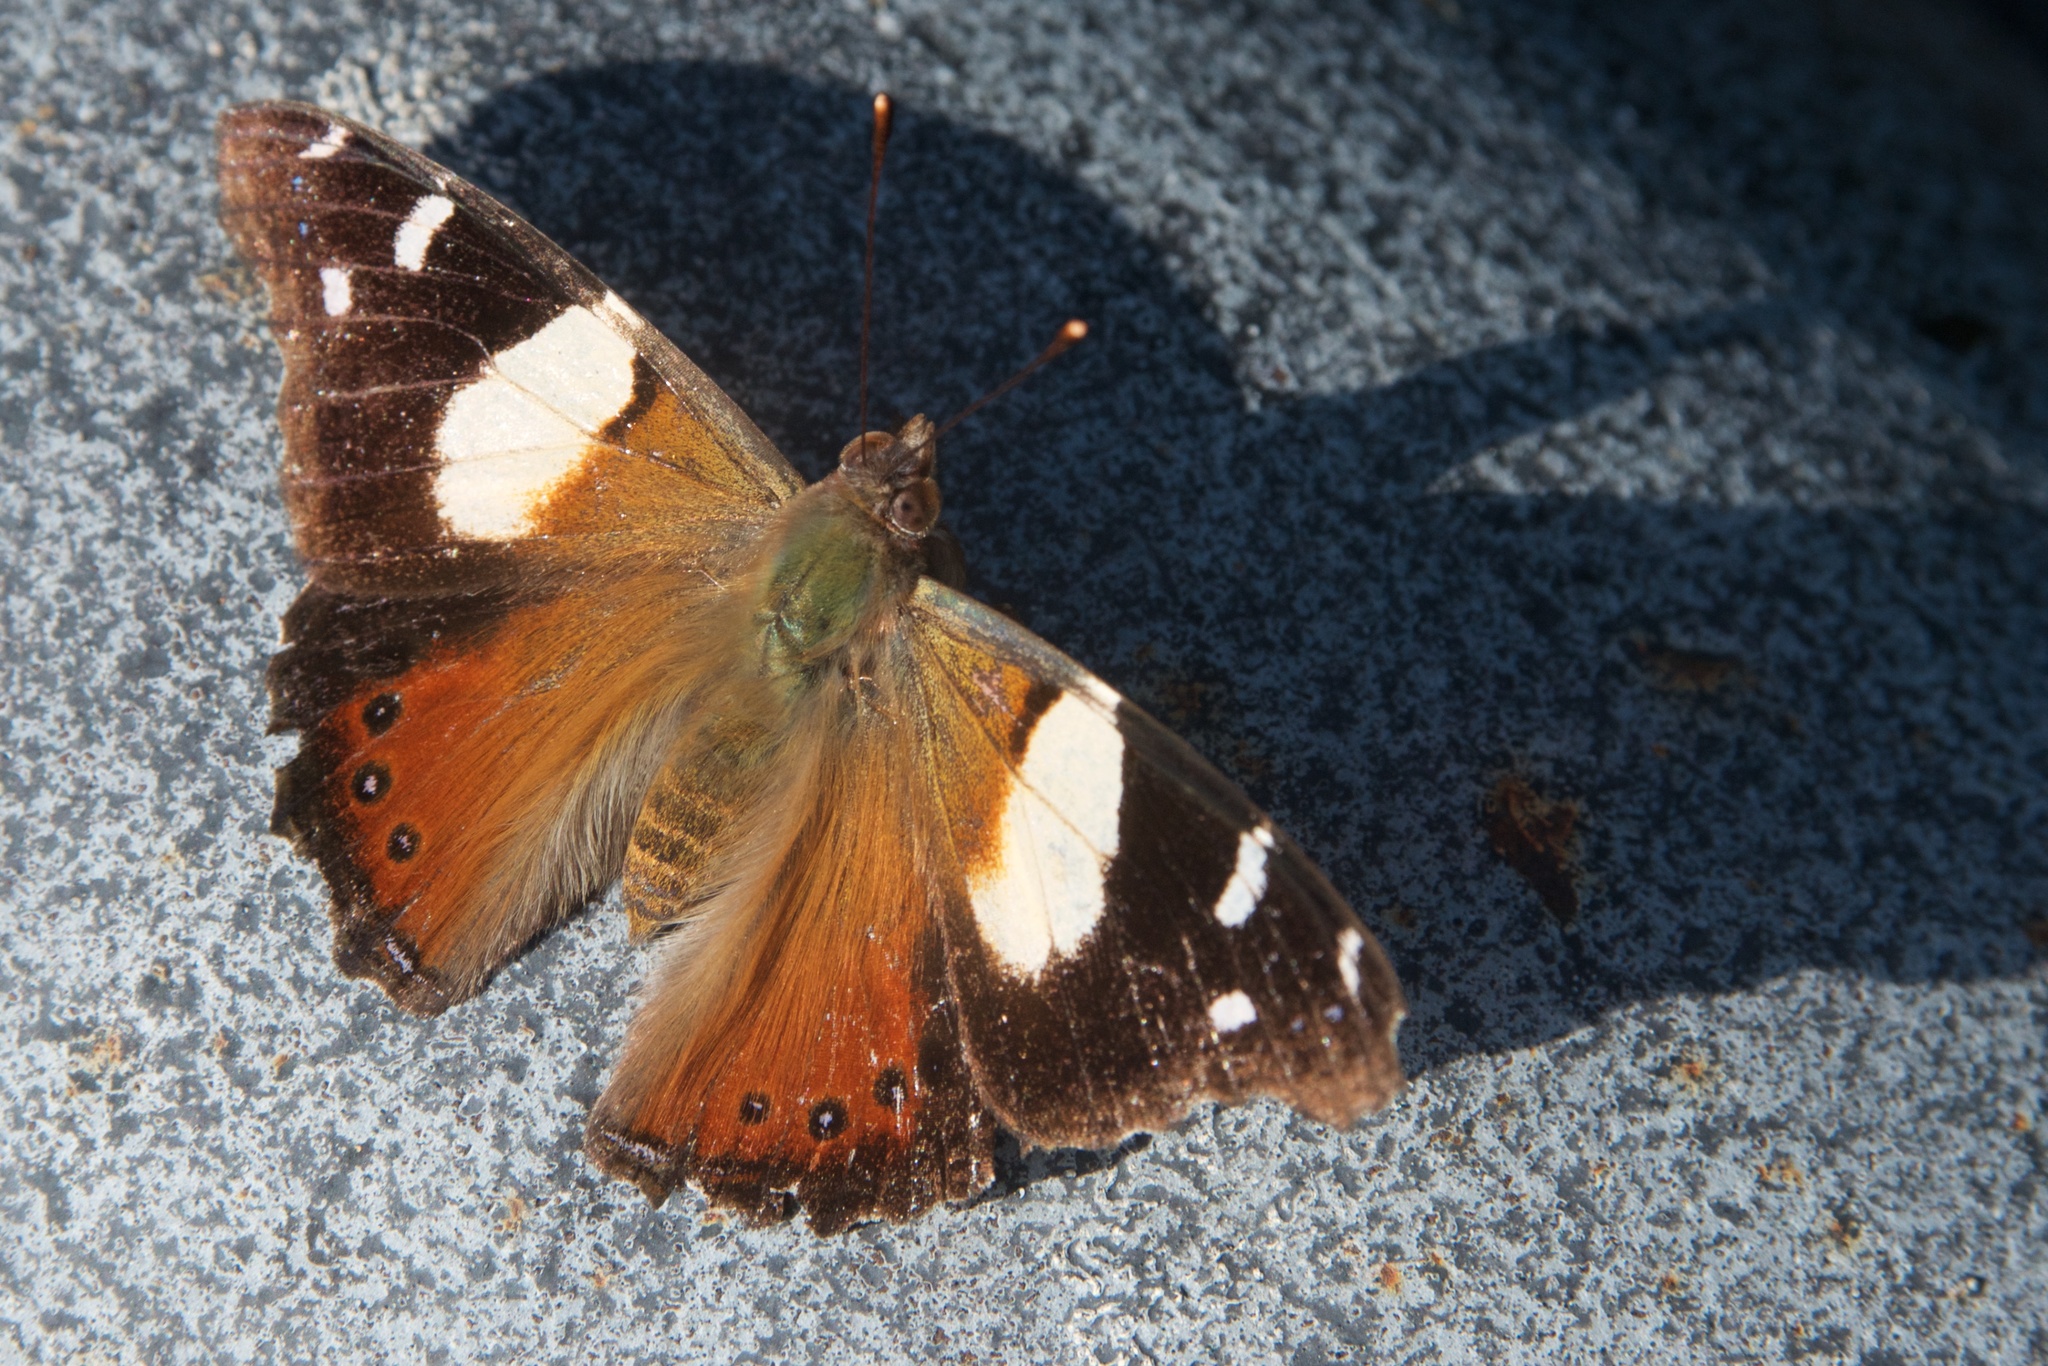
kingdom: Animalia
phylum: Arthropoda
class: Insecta
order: Lepidoptera
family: Nymphalidae
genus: Vanessa
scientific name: Vanessa itea
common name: Yellow admiral
